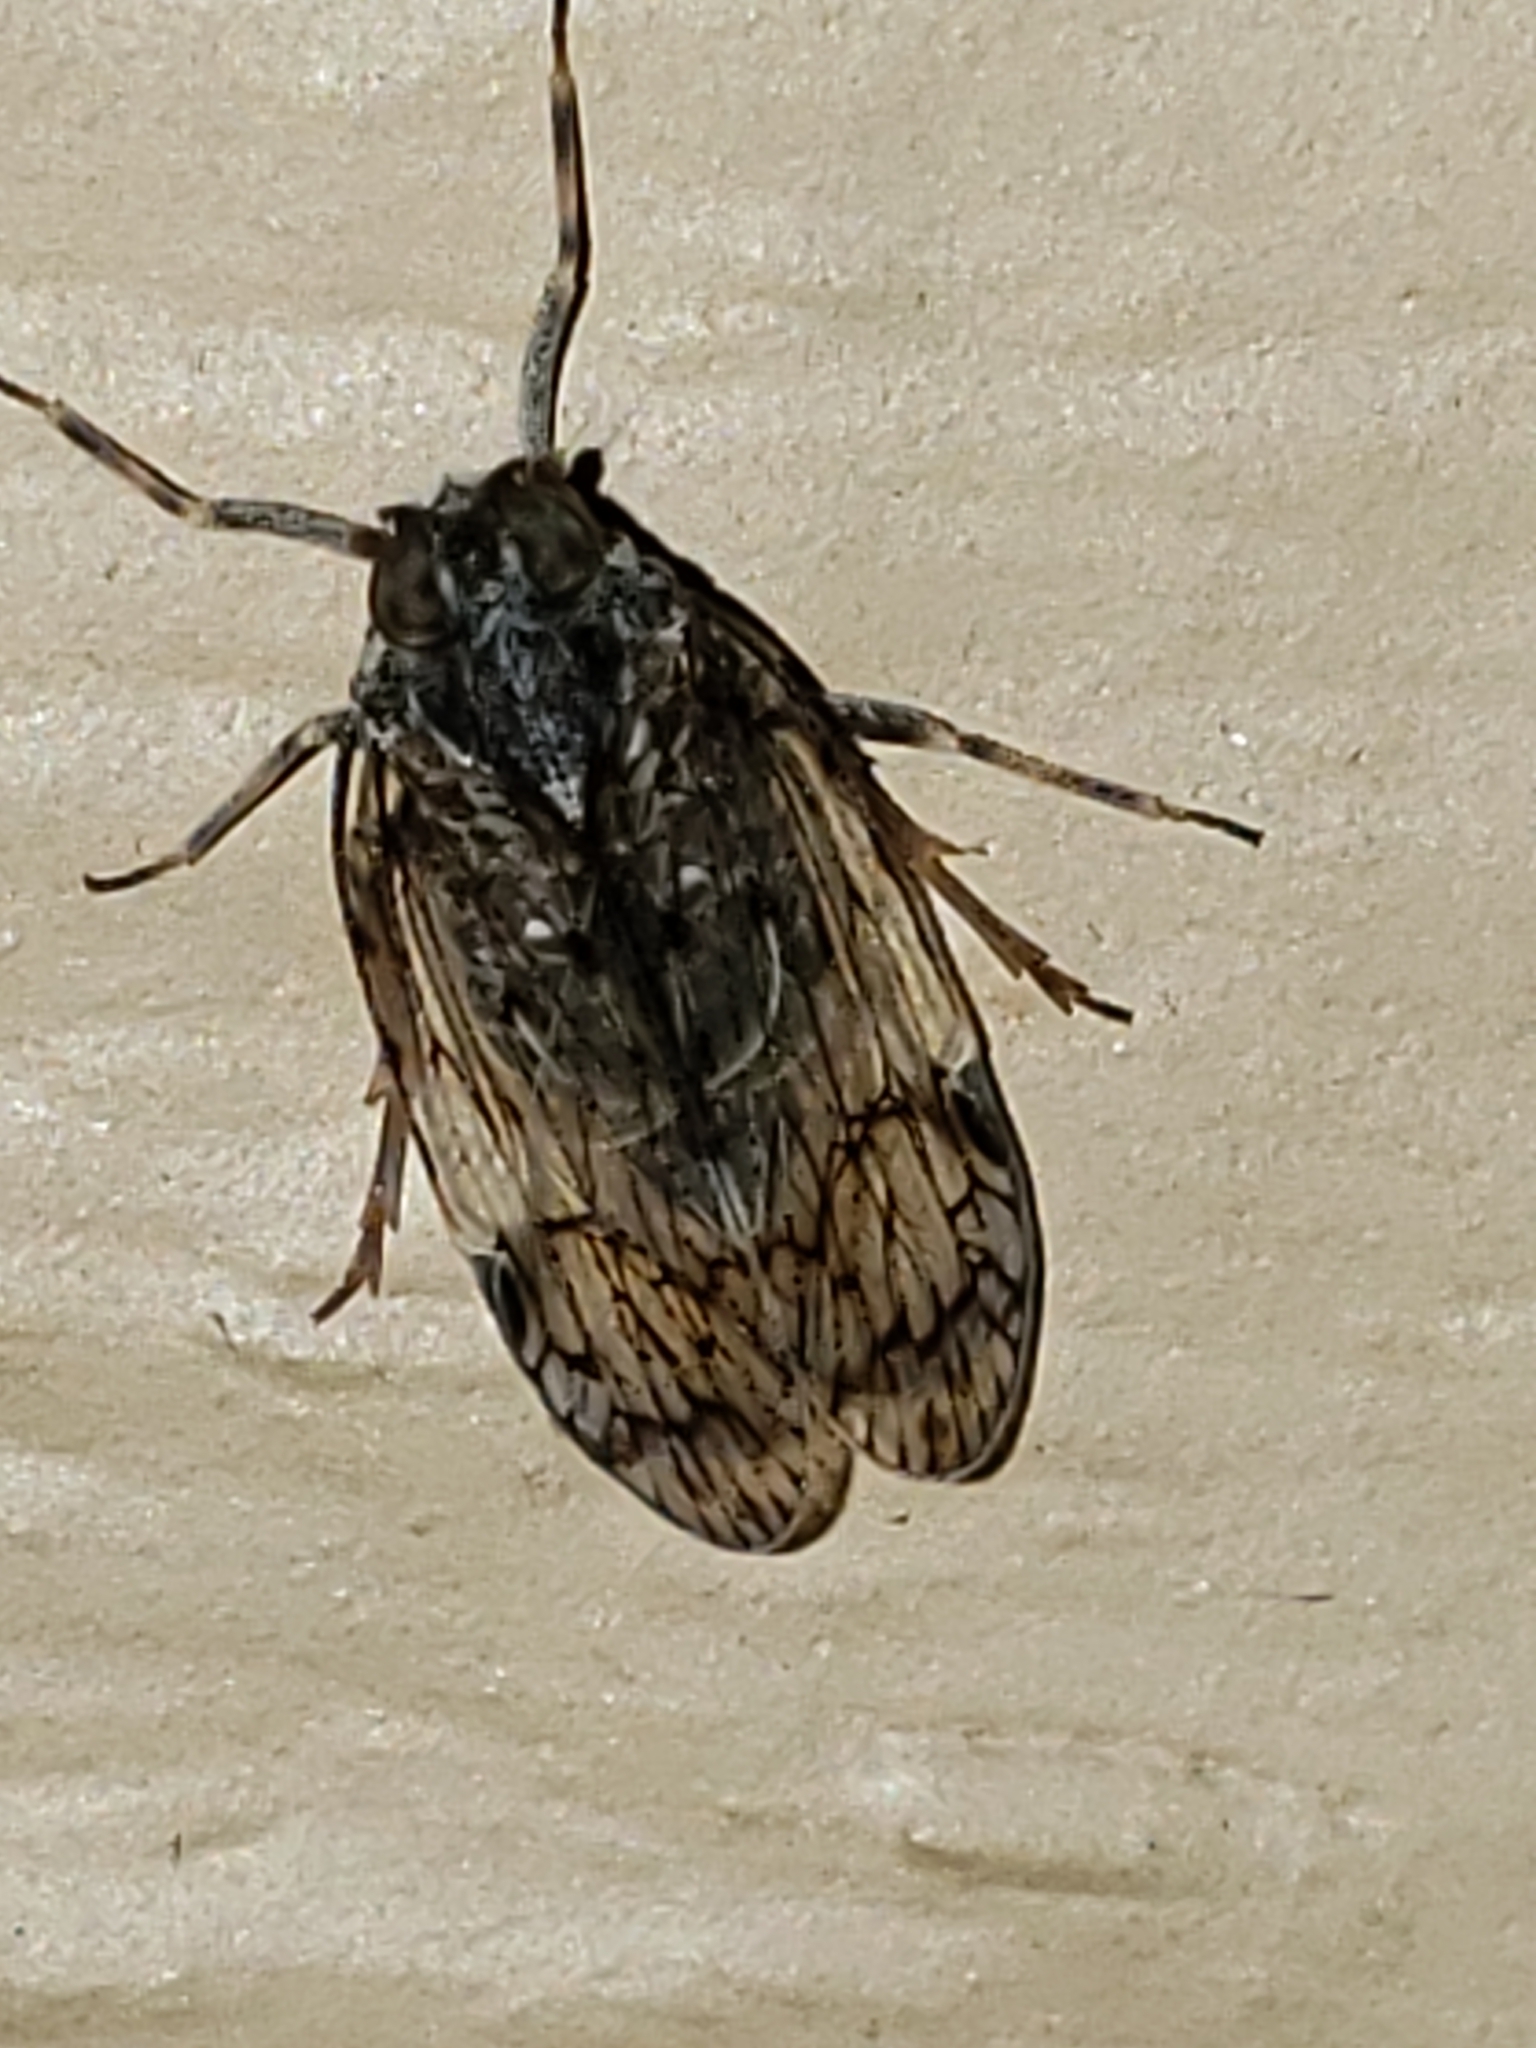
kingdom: Animalia
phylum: Arthropoda
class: Insecta
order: Hemiptera
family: Cixiidae
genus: Melanoliarus
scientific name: Melanoliarus placitus
